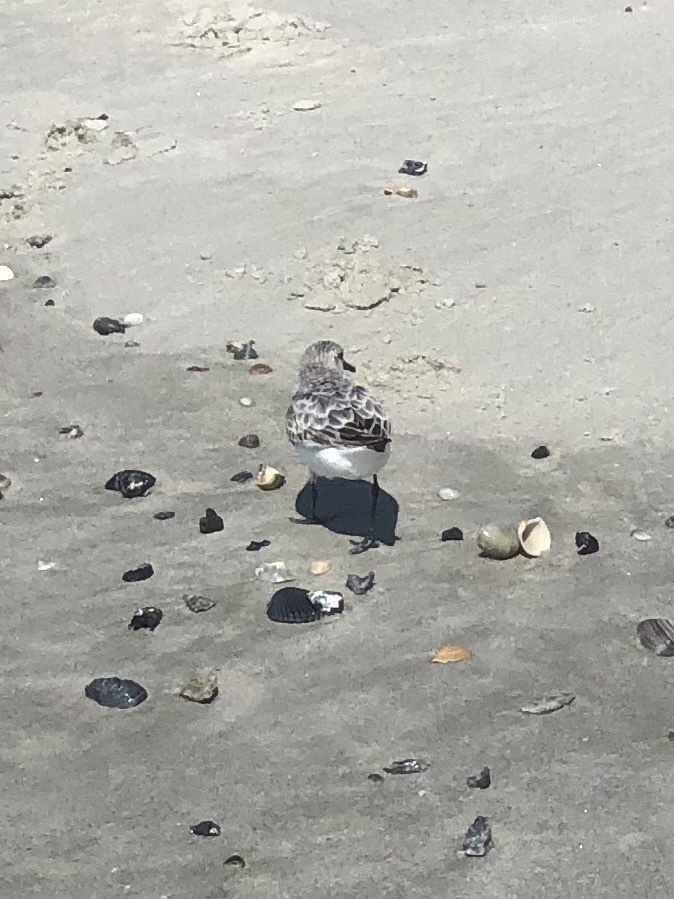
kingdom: Animalia
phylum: Chordata
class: Aves
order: Charadriiformes
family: Scolopacidae
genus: Calidris
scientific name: Calidris alba
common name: Sanderling
